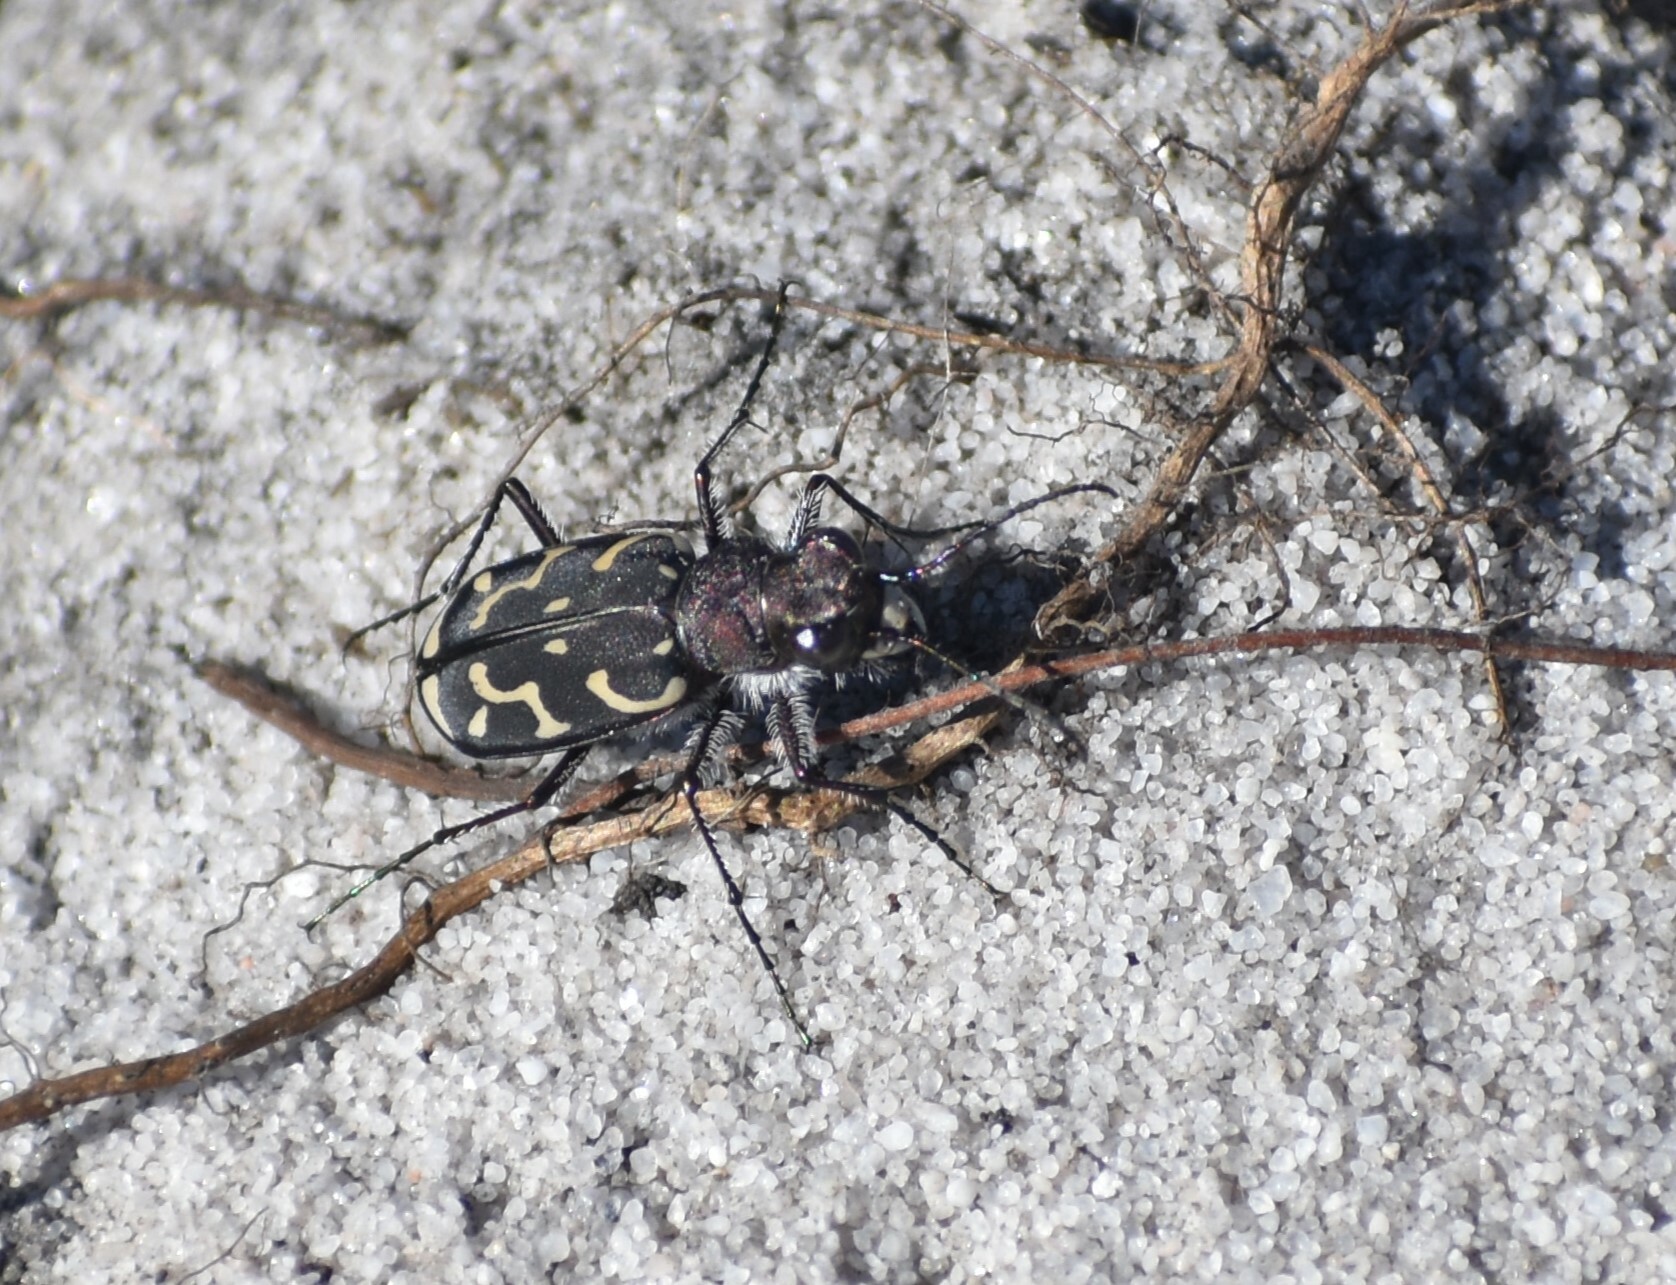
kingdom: Animalia
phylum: Arthropoda
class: Insecta
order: Coleoptera
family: Carabidae
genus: Cicindela
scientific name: Cicindela lurida
